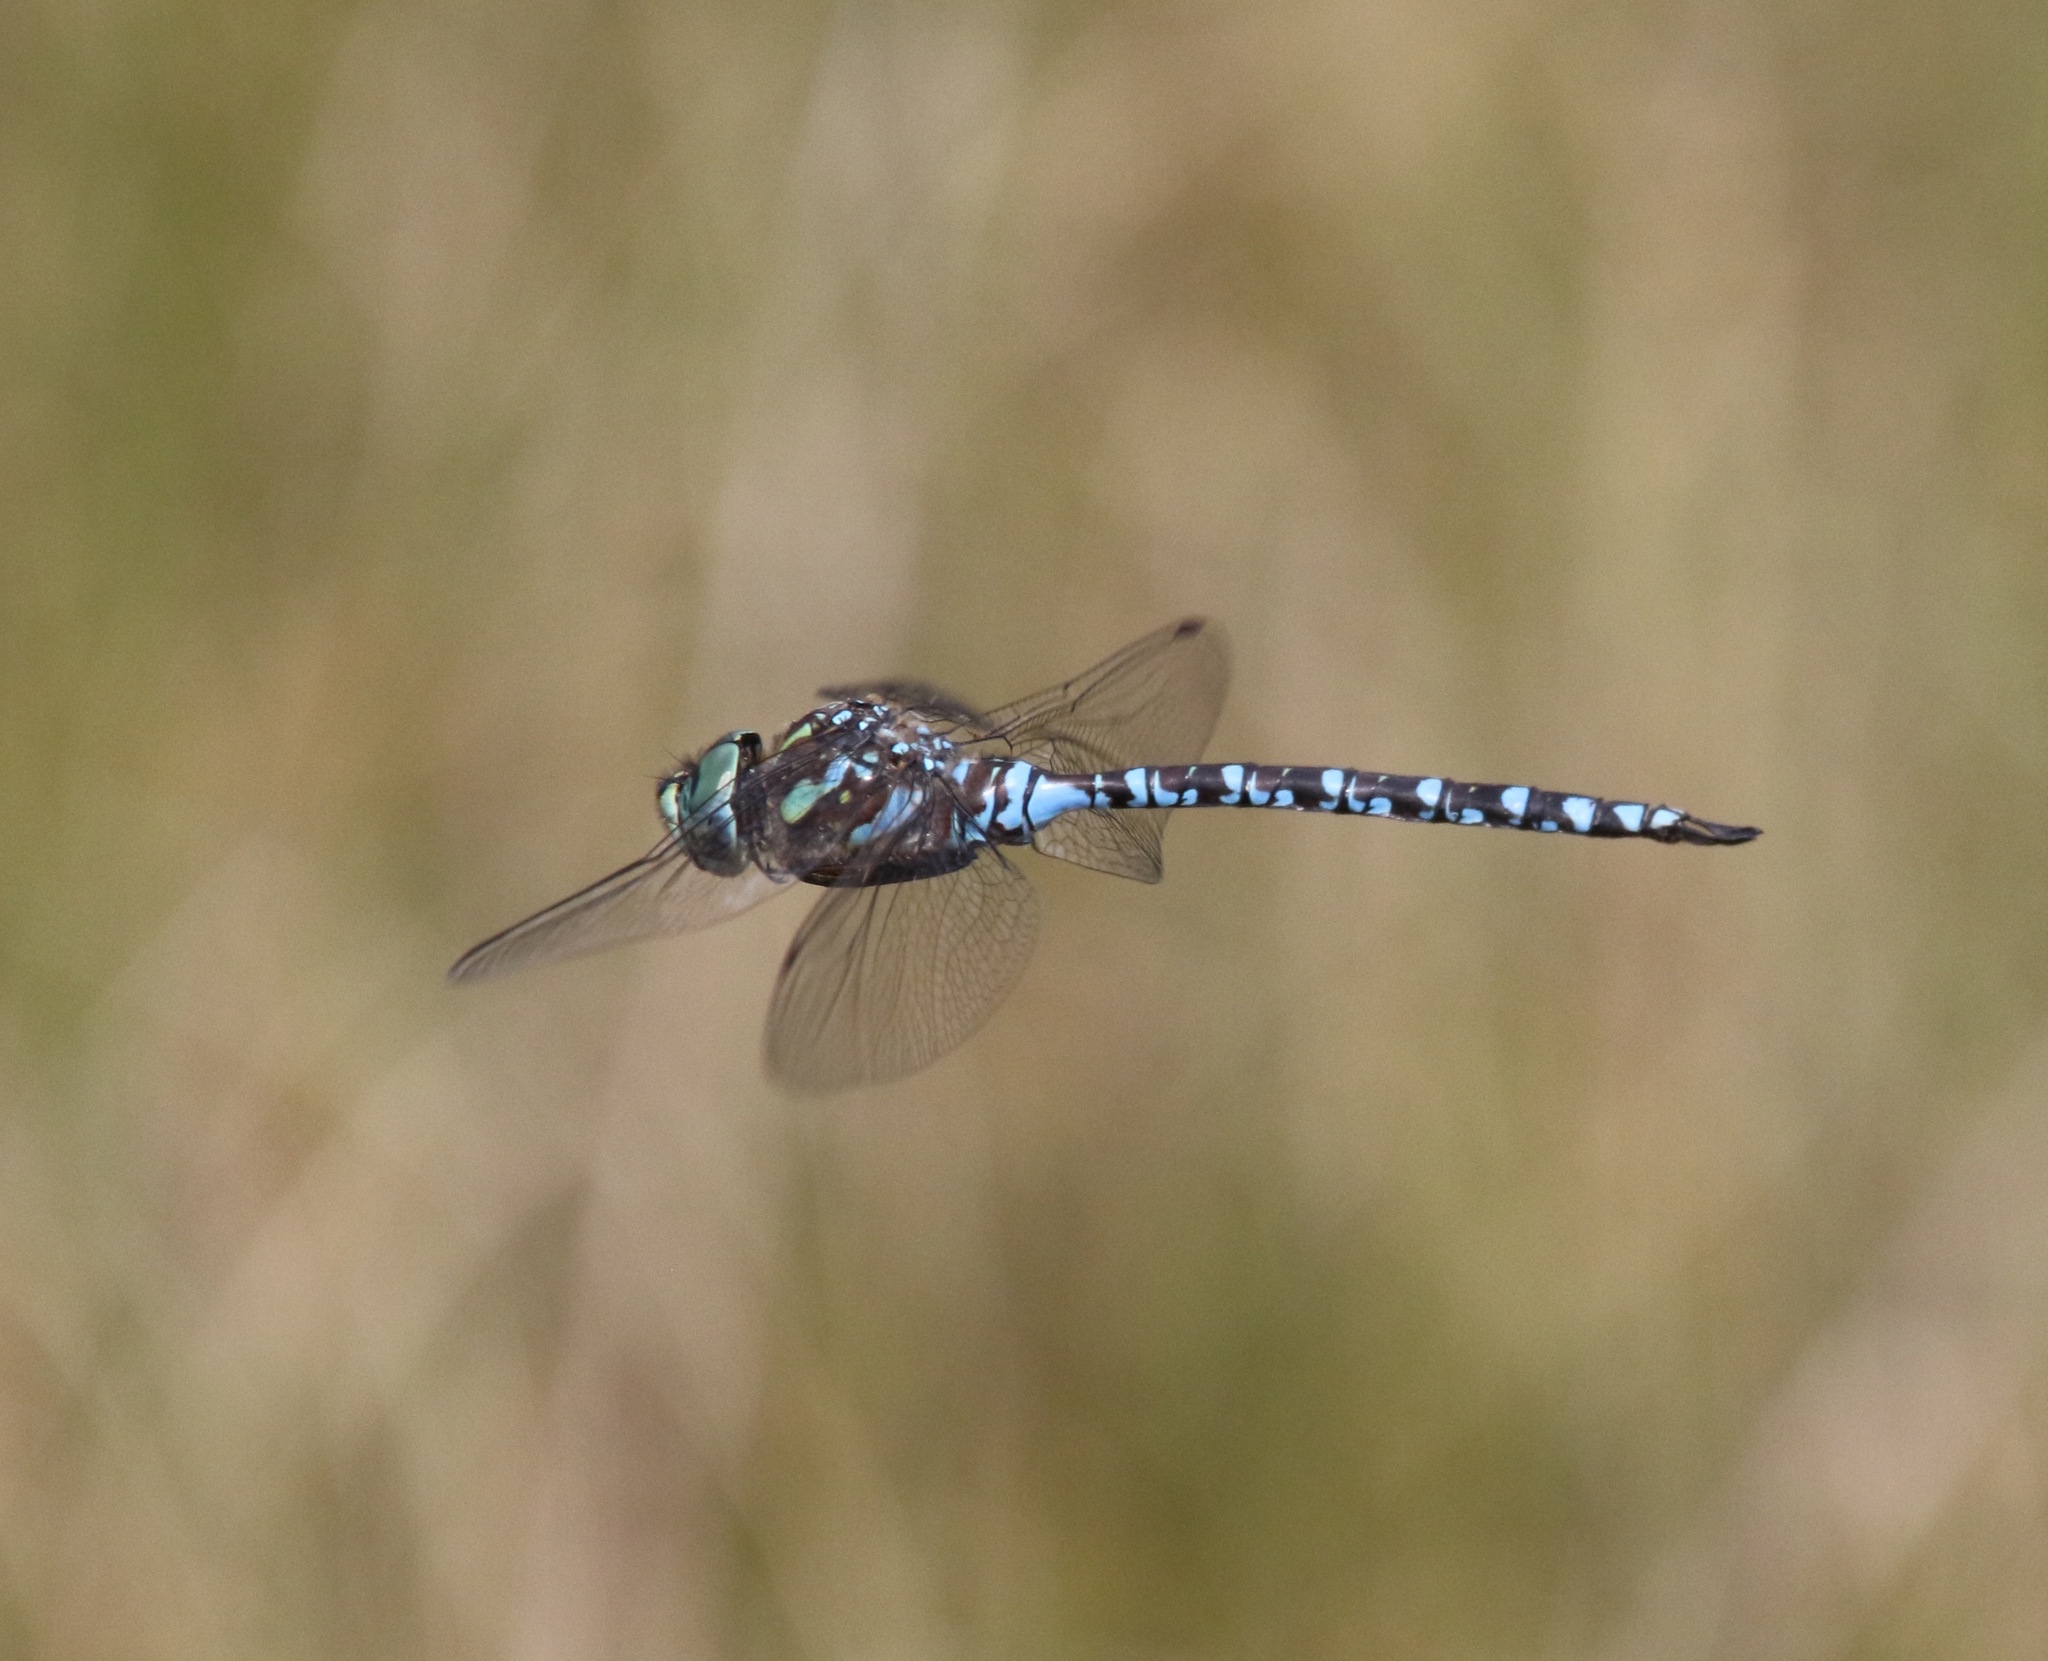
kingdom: Animalia
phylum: Arthropoda
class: Insecta
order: Odonata
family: Aeshnidae
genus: Aeshna
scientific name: Aeshna canadensis
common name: Canada darner
